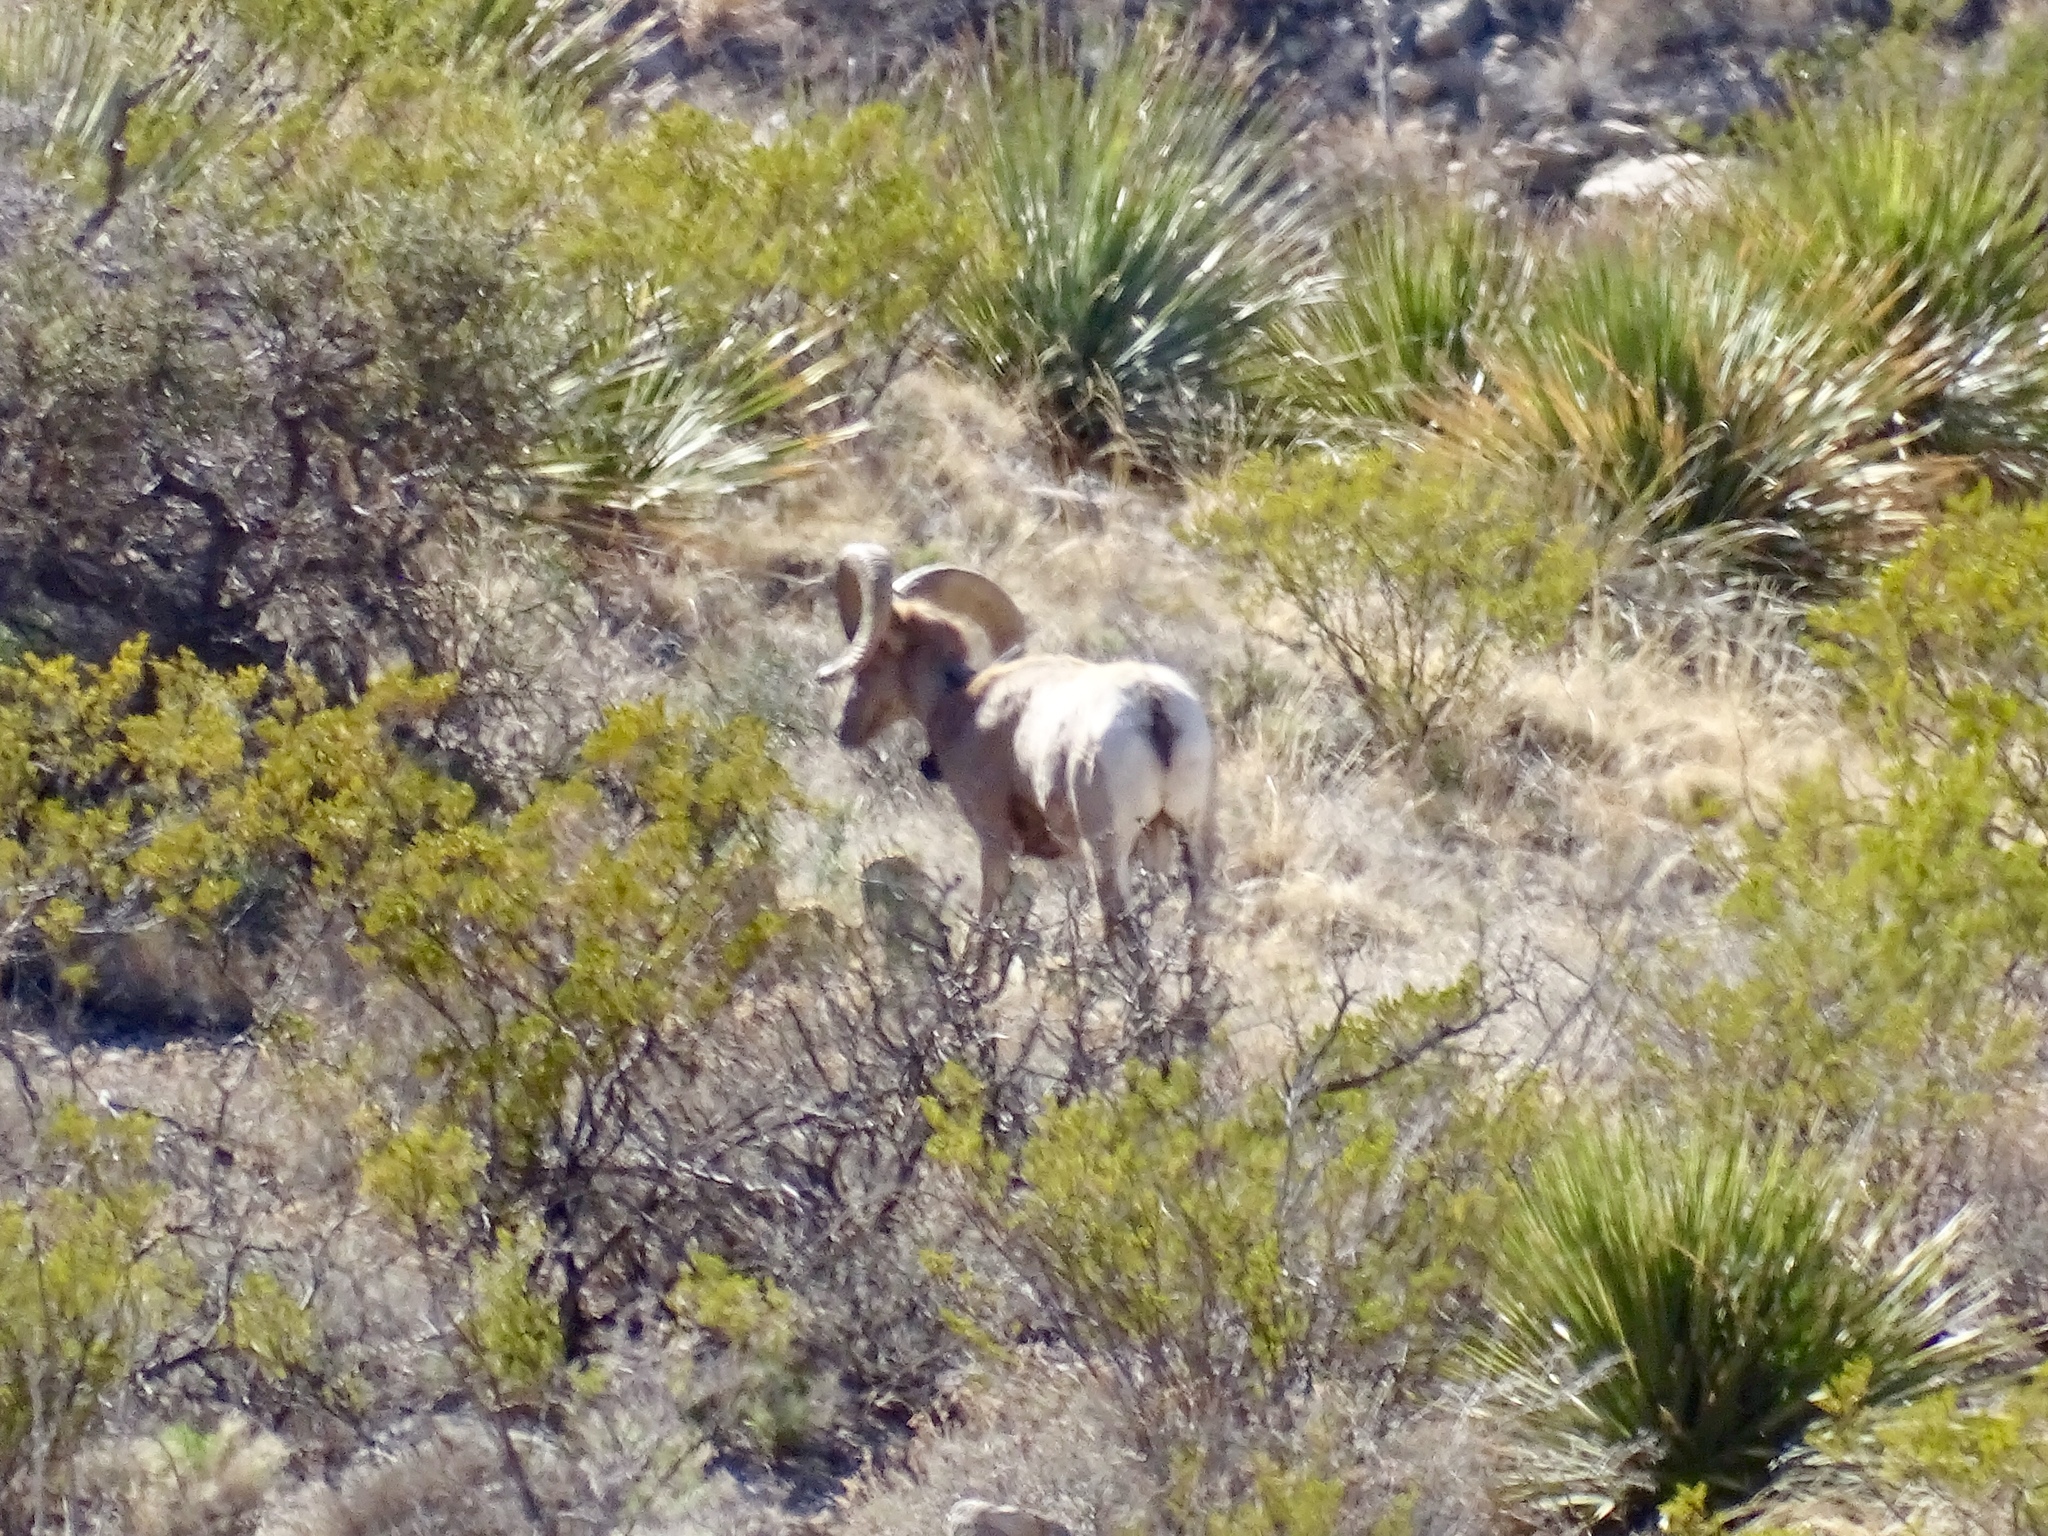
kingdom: Animalia
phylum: Chordata
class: Mammalia
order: Artiodactyla
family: Bovidae
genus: Ovis
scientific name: Ovis canadensis
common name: Bighorn sheep
